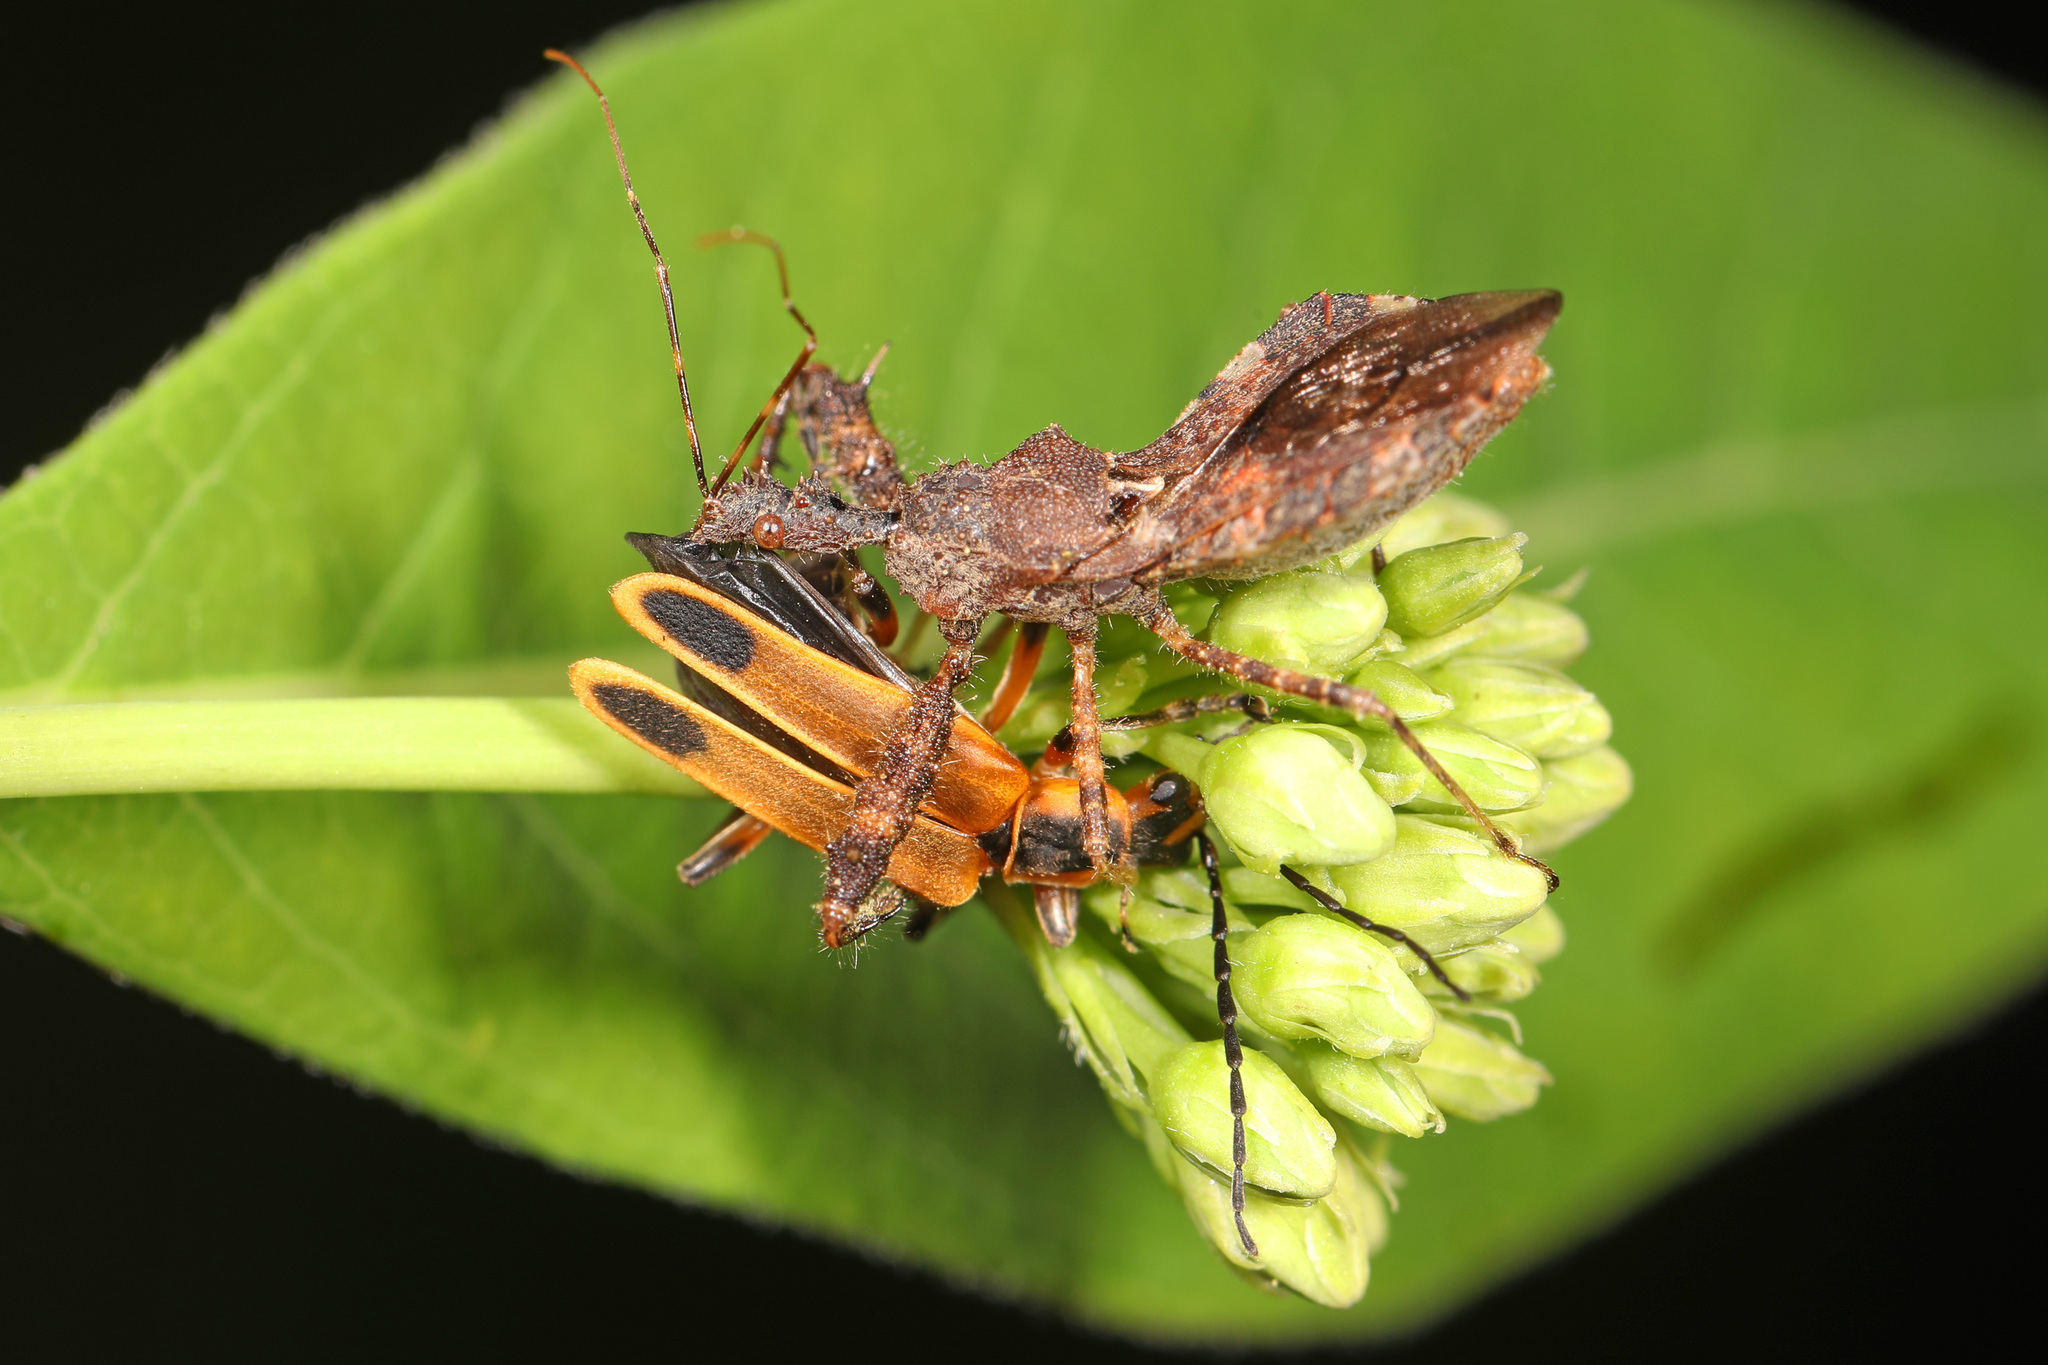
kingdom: Animalia
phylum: Arthropoda
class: Insecta
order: Hemiptera
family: Reduviidae
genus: Sinea
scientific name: Sinea
